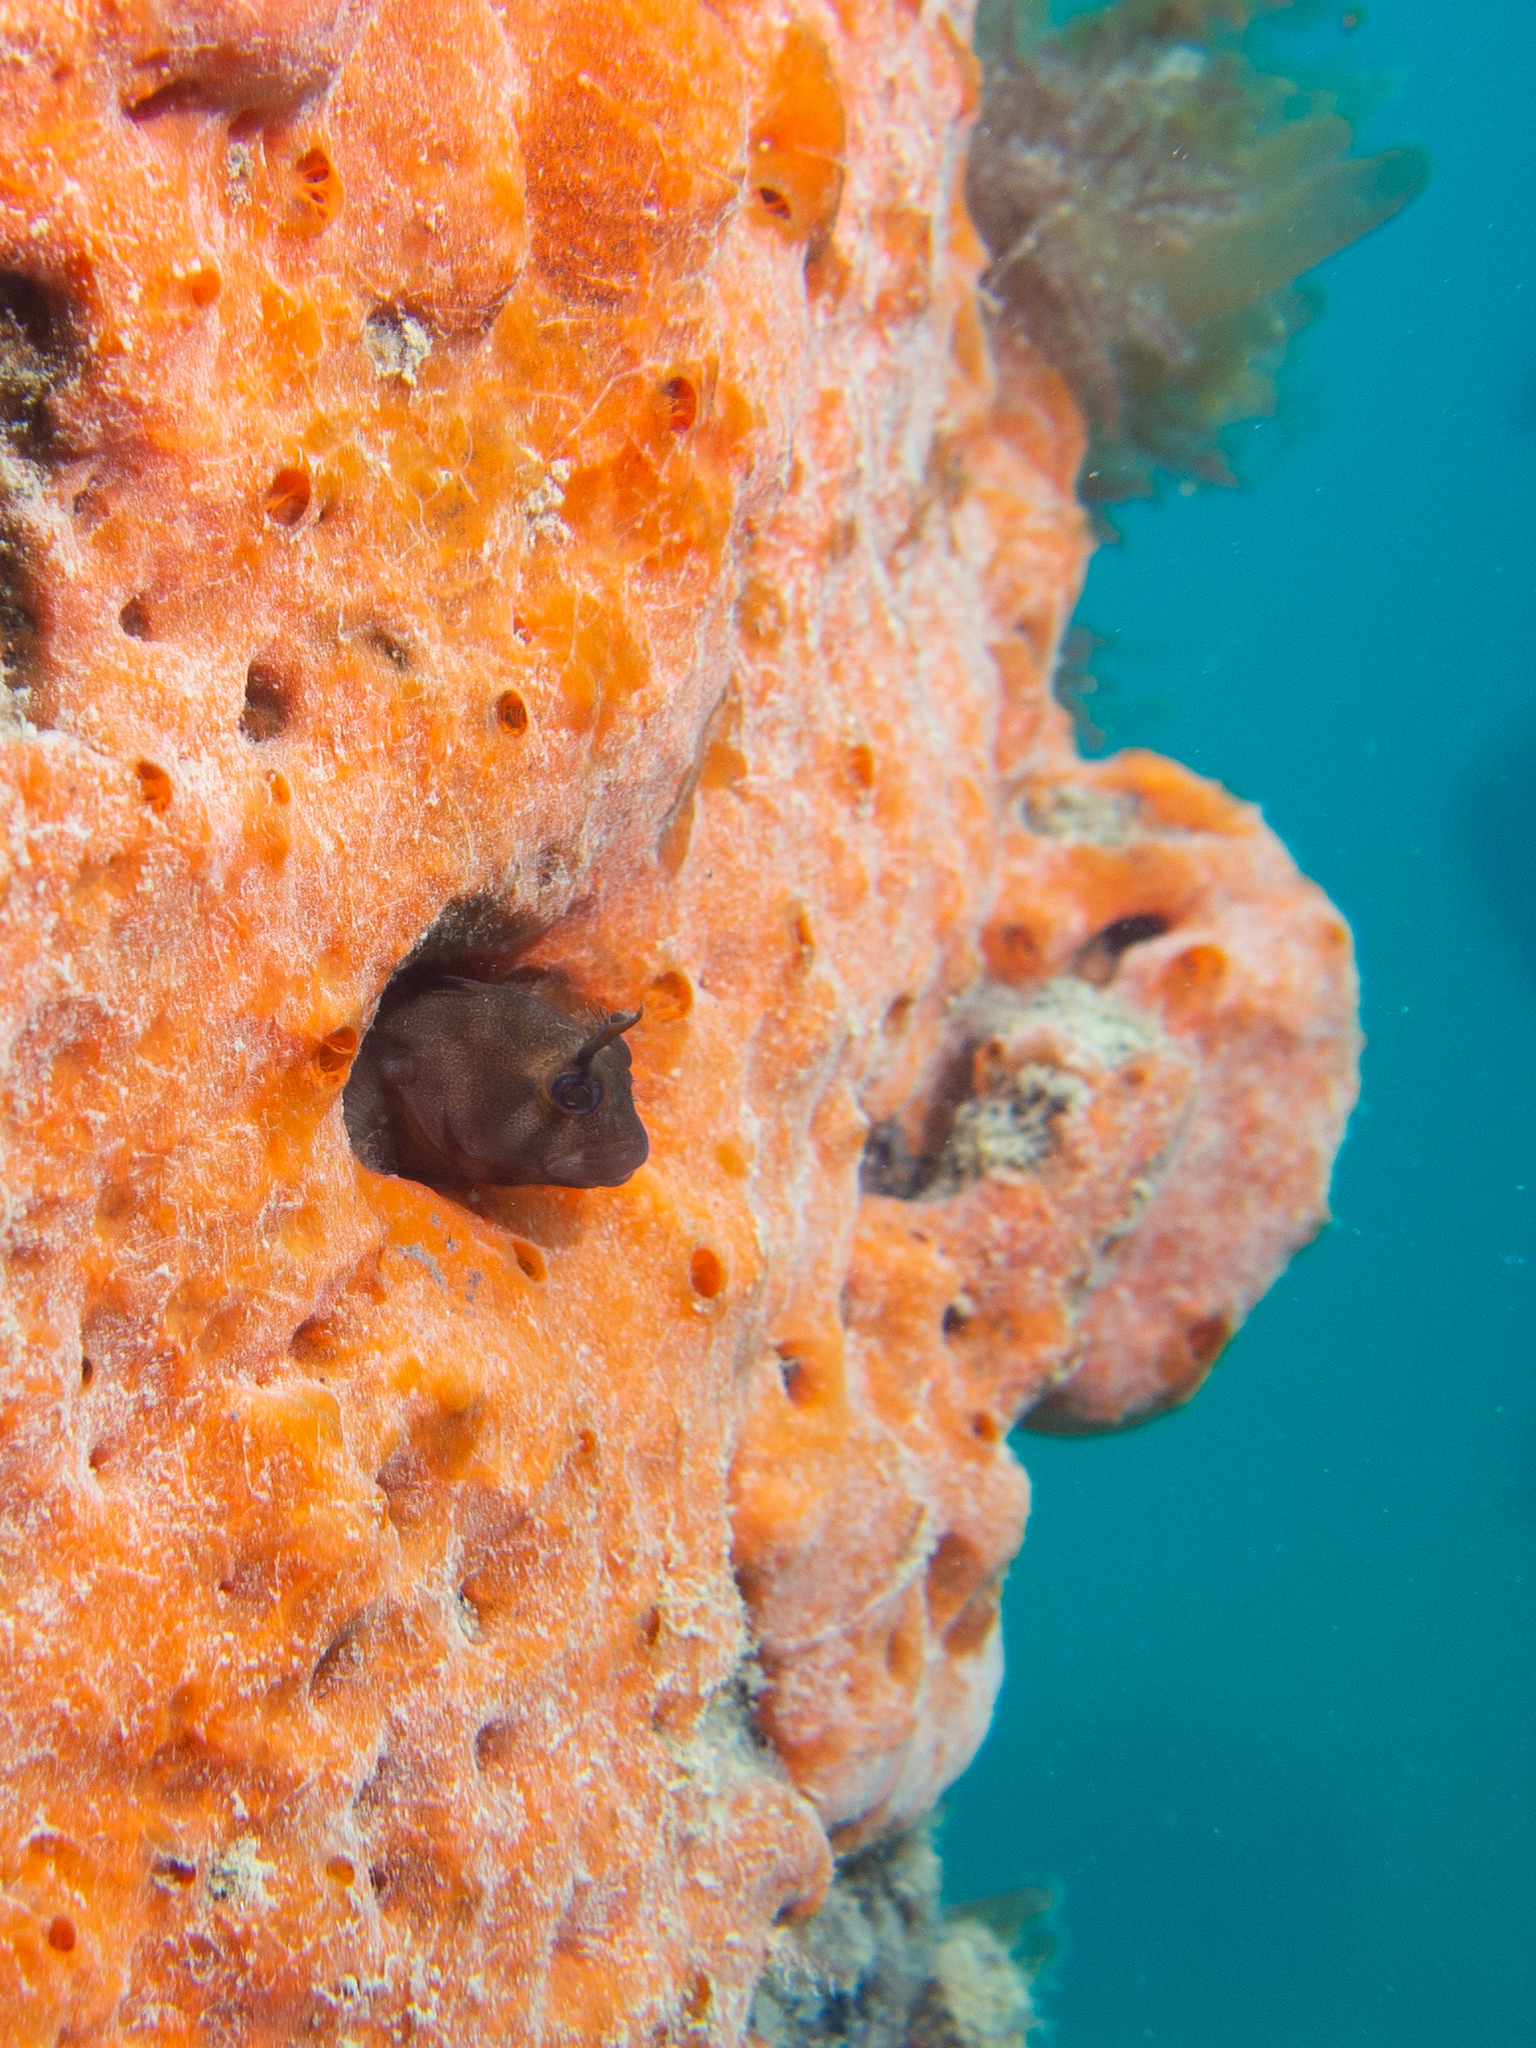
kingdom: Animalia
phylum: Chordata
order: Perciformes
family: Blenniidae
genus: Parablennius
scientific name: Parablennius tasmanianus
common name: Tasmanian blenny
